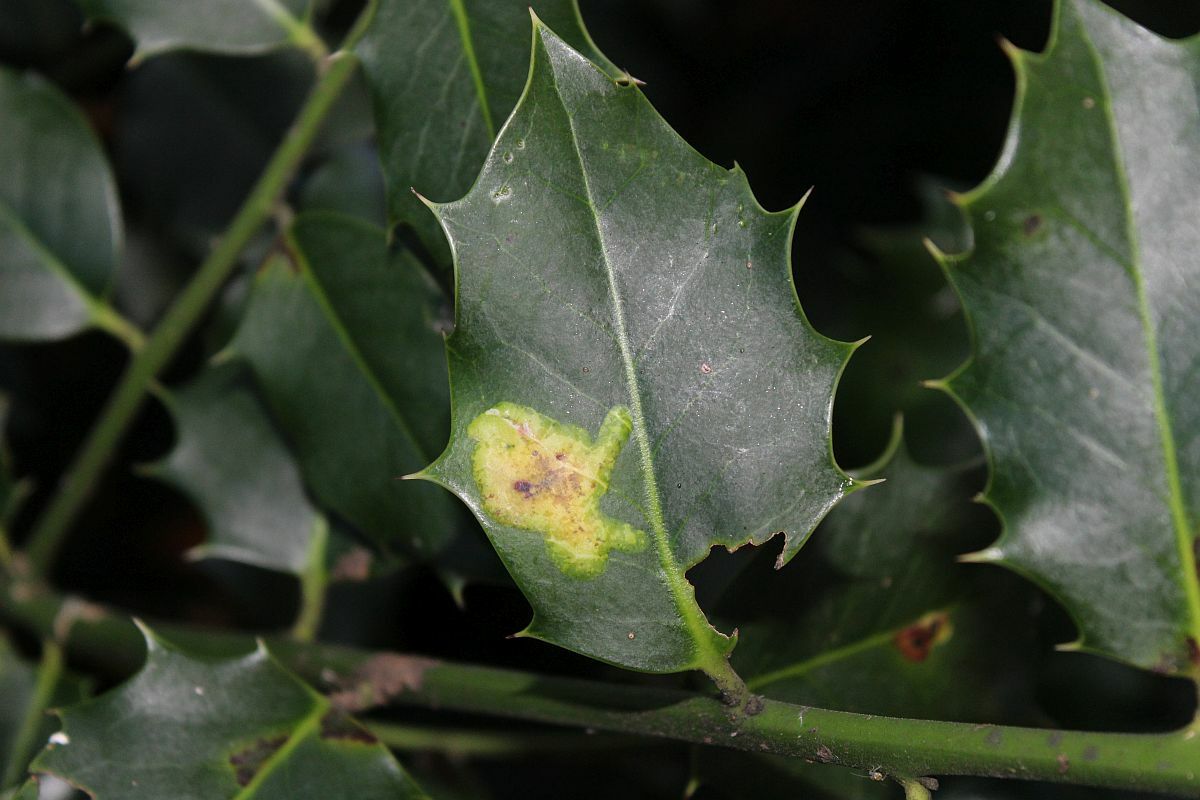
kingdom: Animalia
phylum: Arthropoda
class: Insecta
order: Diptera
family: Agromyzidae
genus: Phytomyza
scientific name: Phytomyza ilicis
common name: Holly leafminer
